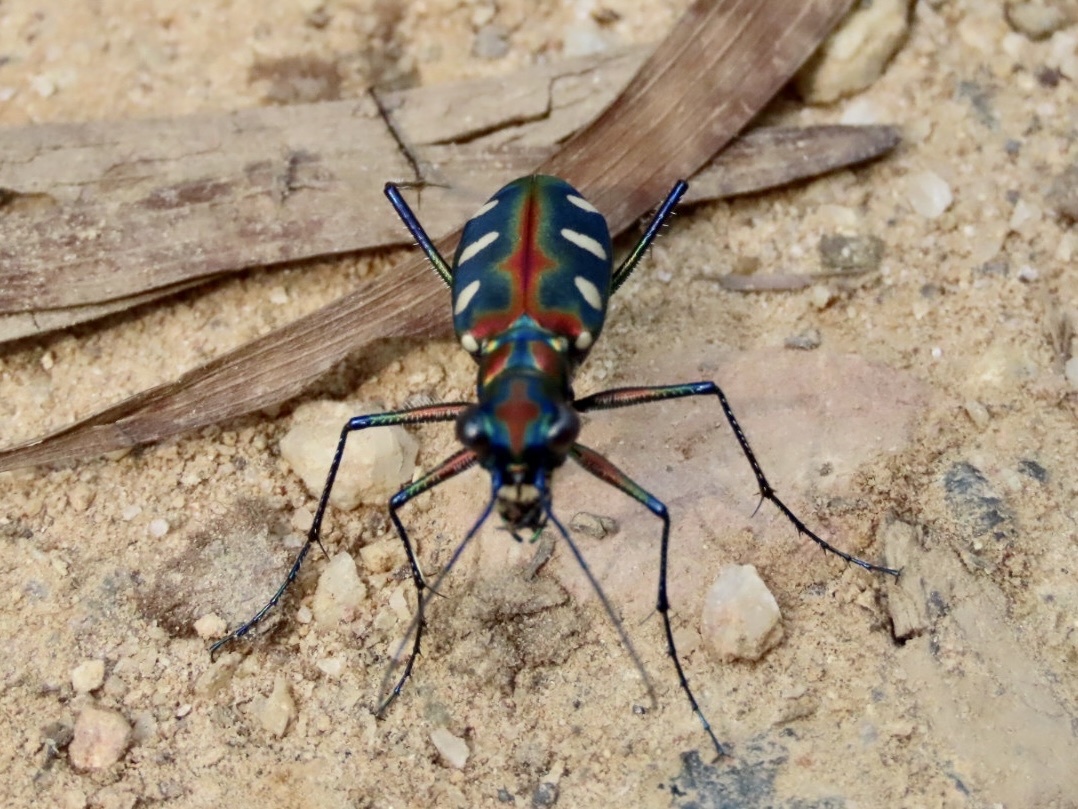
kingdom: Animalia
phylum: Arthropoda
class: Insecta
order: Coleoptera
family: Carabidae
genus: Cicindela
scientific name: Cicindela aurulenta
